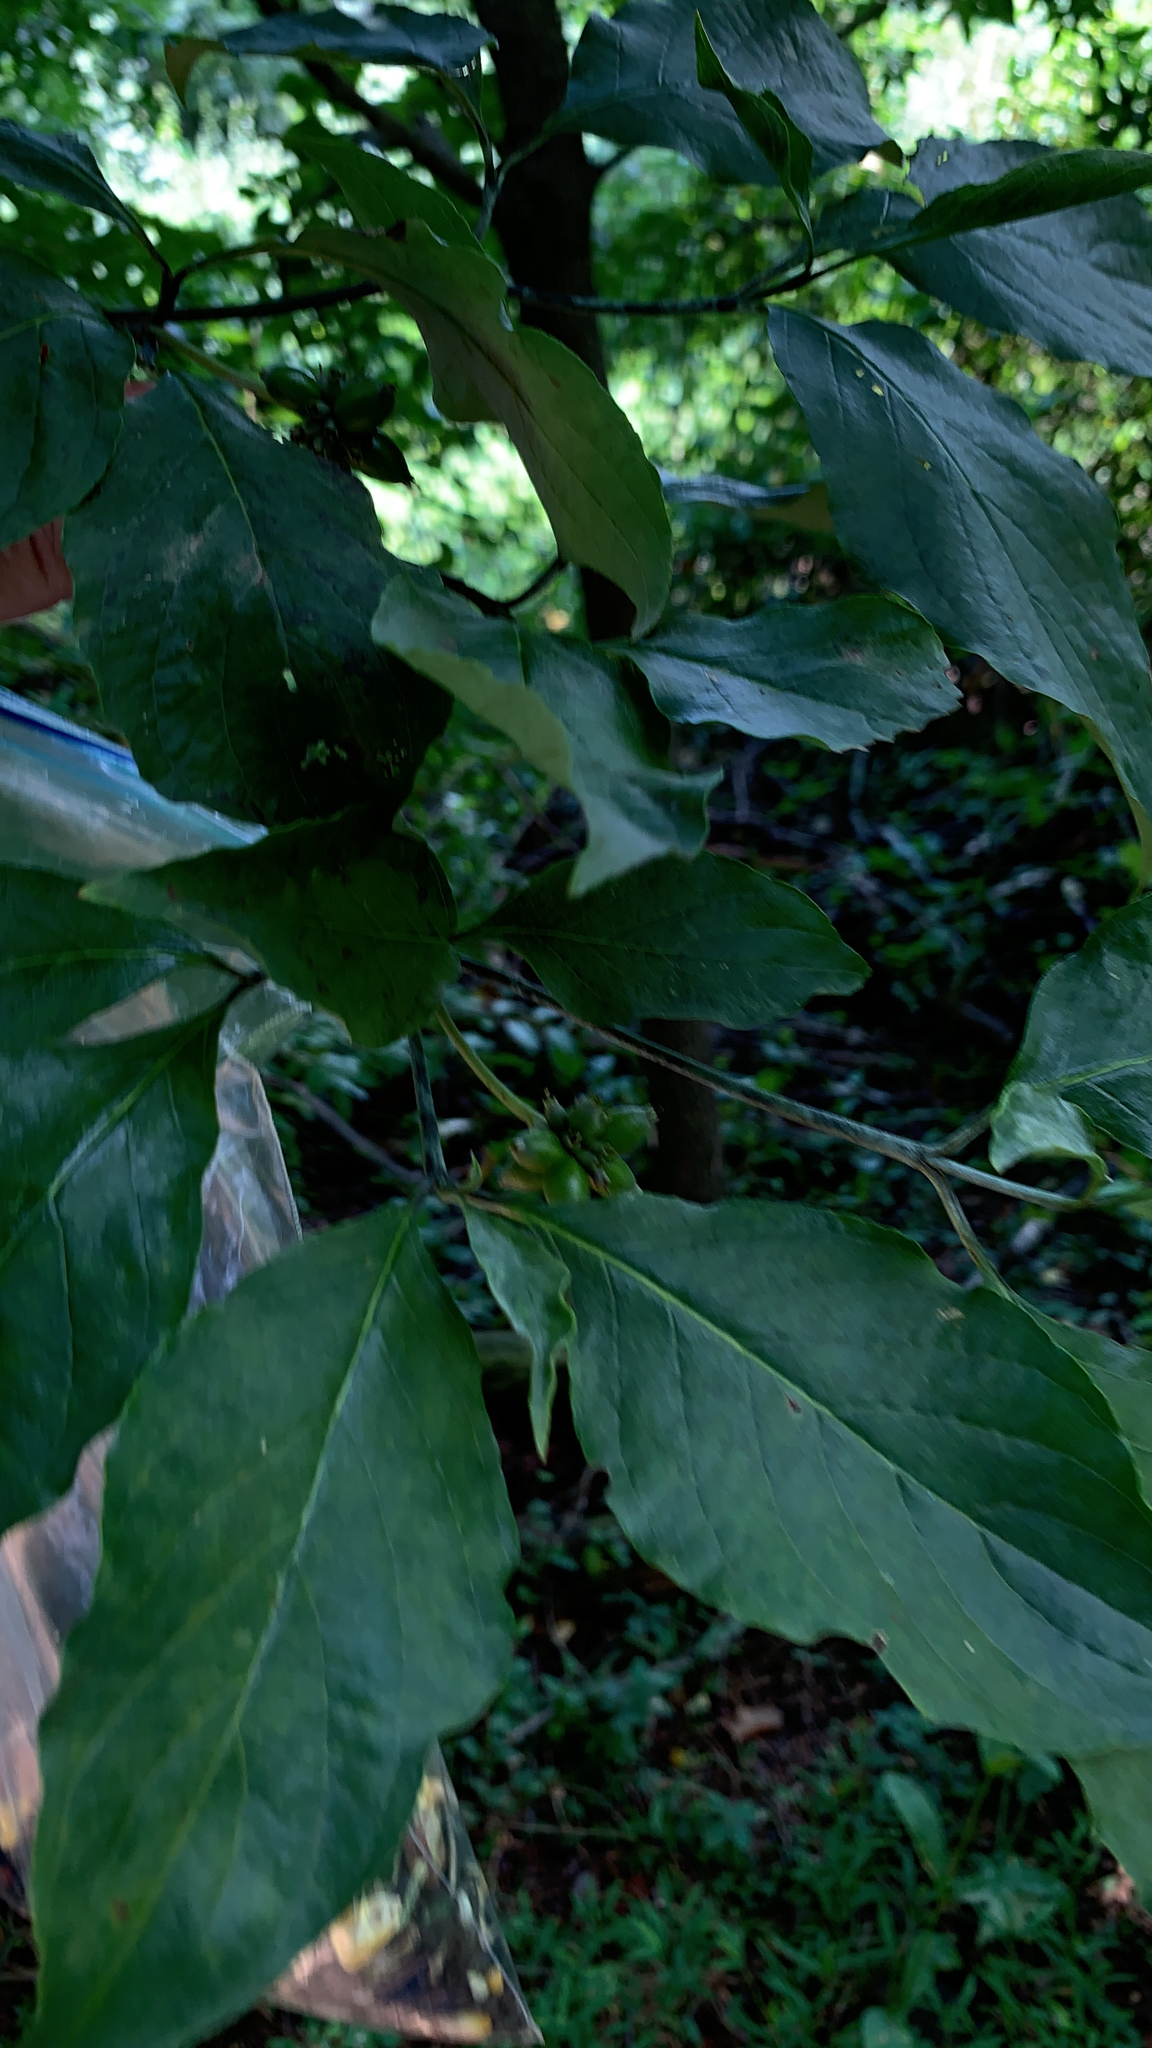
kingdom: Plantae
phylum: Tracheophyta
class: Magnoliopsida
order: Cornales
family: Cornaceae
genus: Cornus
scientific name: Cornus florida
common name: Flowering dogwood
